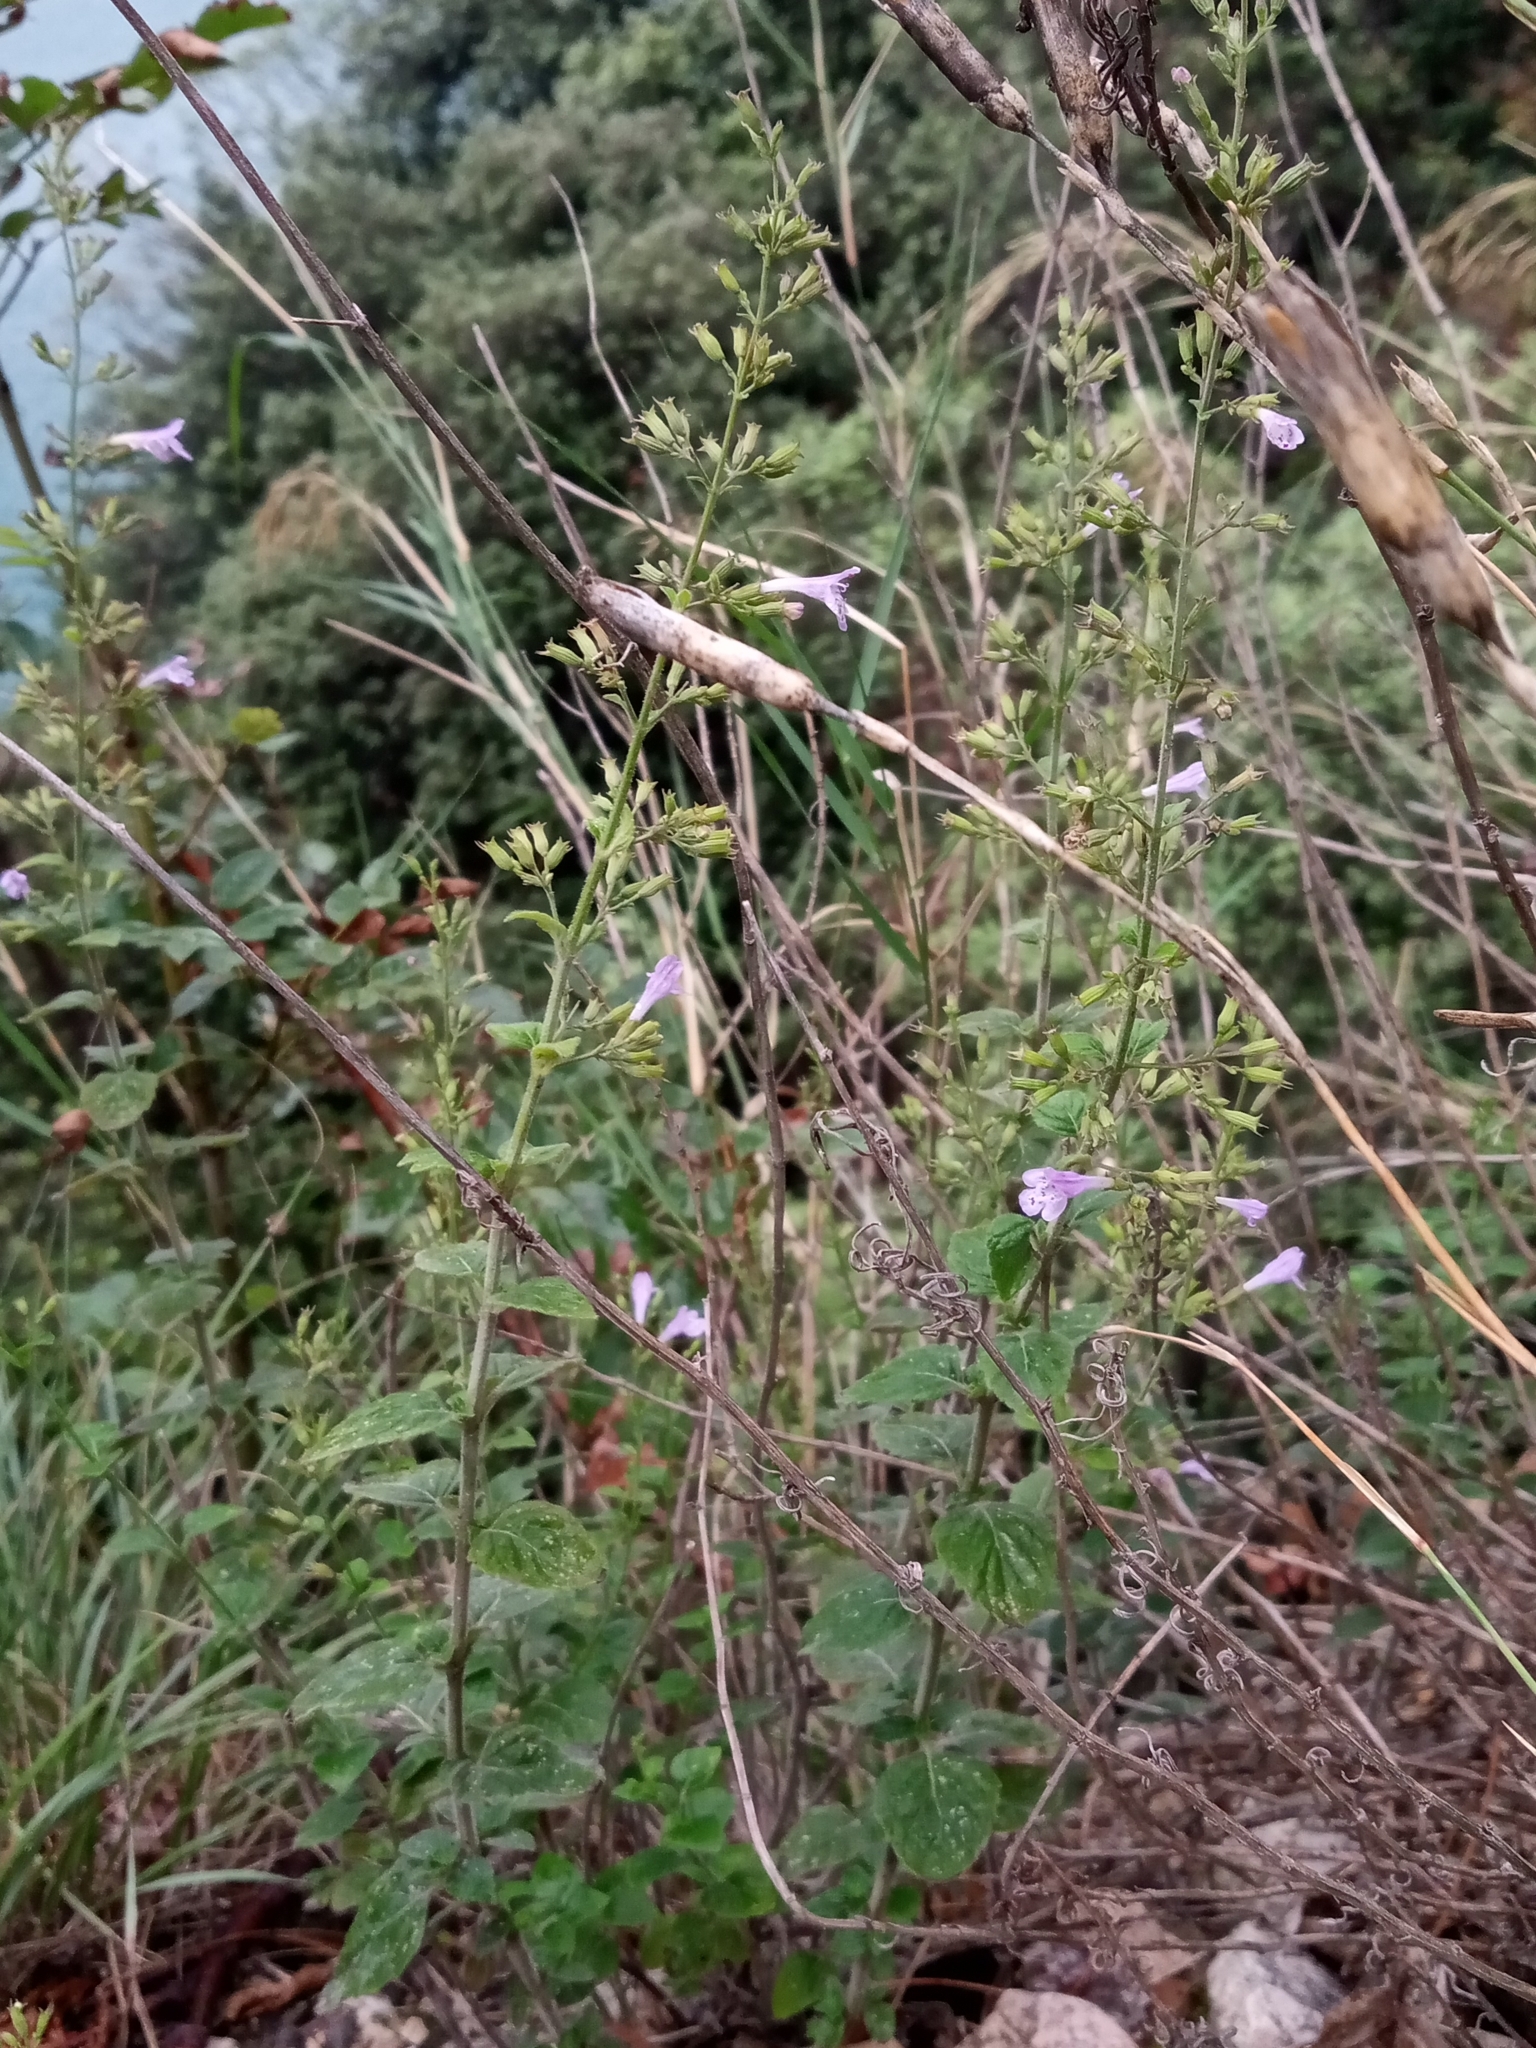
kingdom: Plantae
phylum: Tracheophyta
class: Magnoliopsida
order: Lamiales
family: Lamiaceae
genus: Clinopodium
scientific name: Clinopodium nepeta
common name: Lesser calamint
